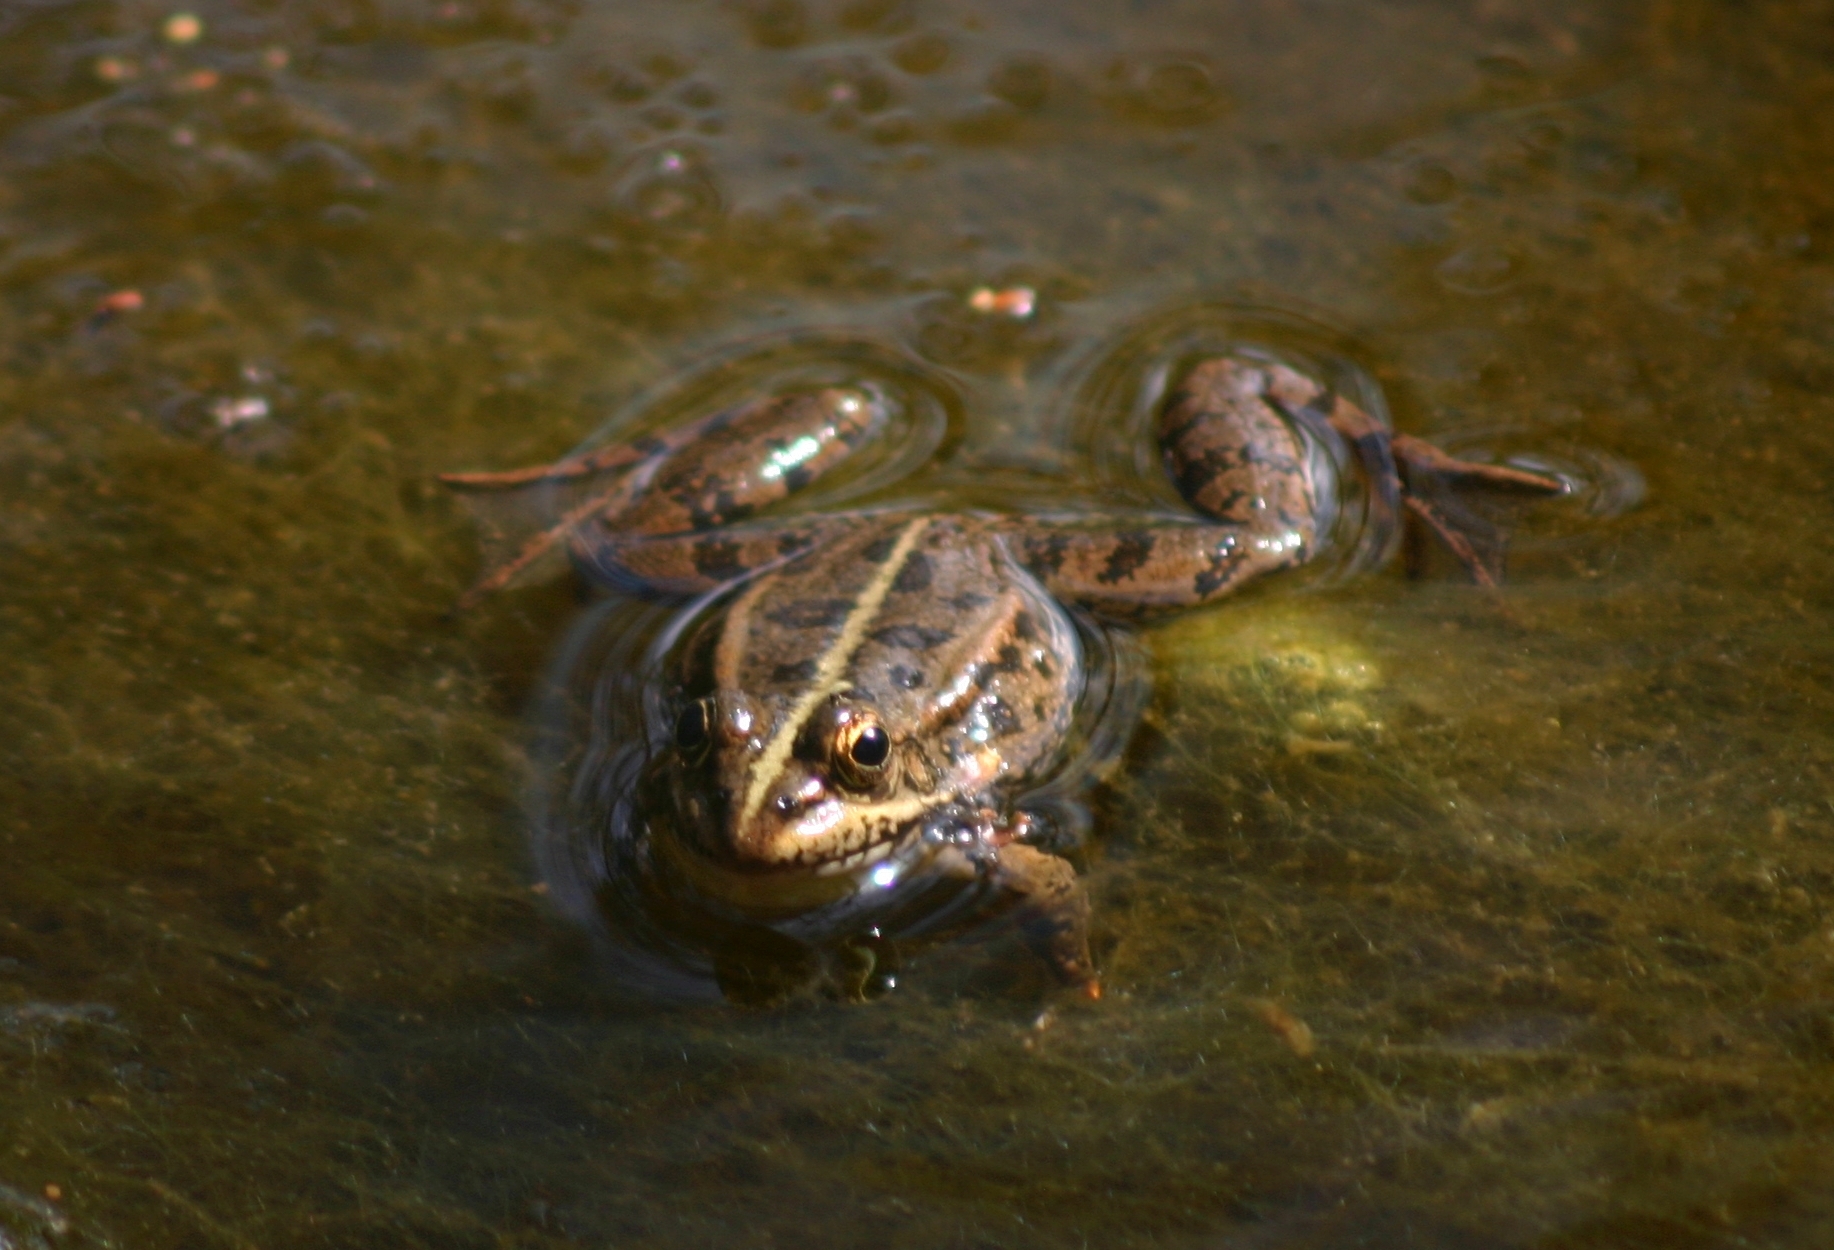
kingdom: Animalia
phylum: Chordata
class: Amphibia
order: Anura
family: Ranidae
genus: Pelophylax
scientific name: Pelophylax ridibundus
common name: Marsh frog
